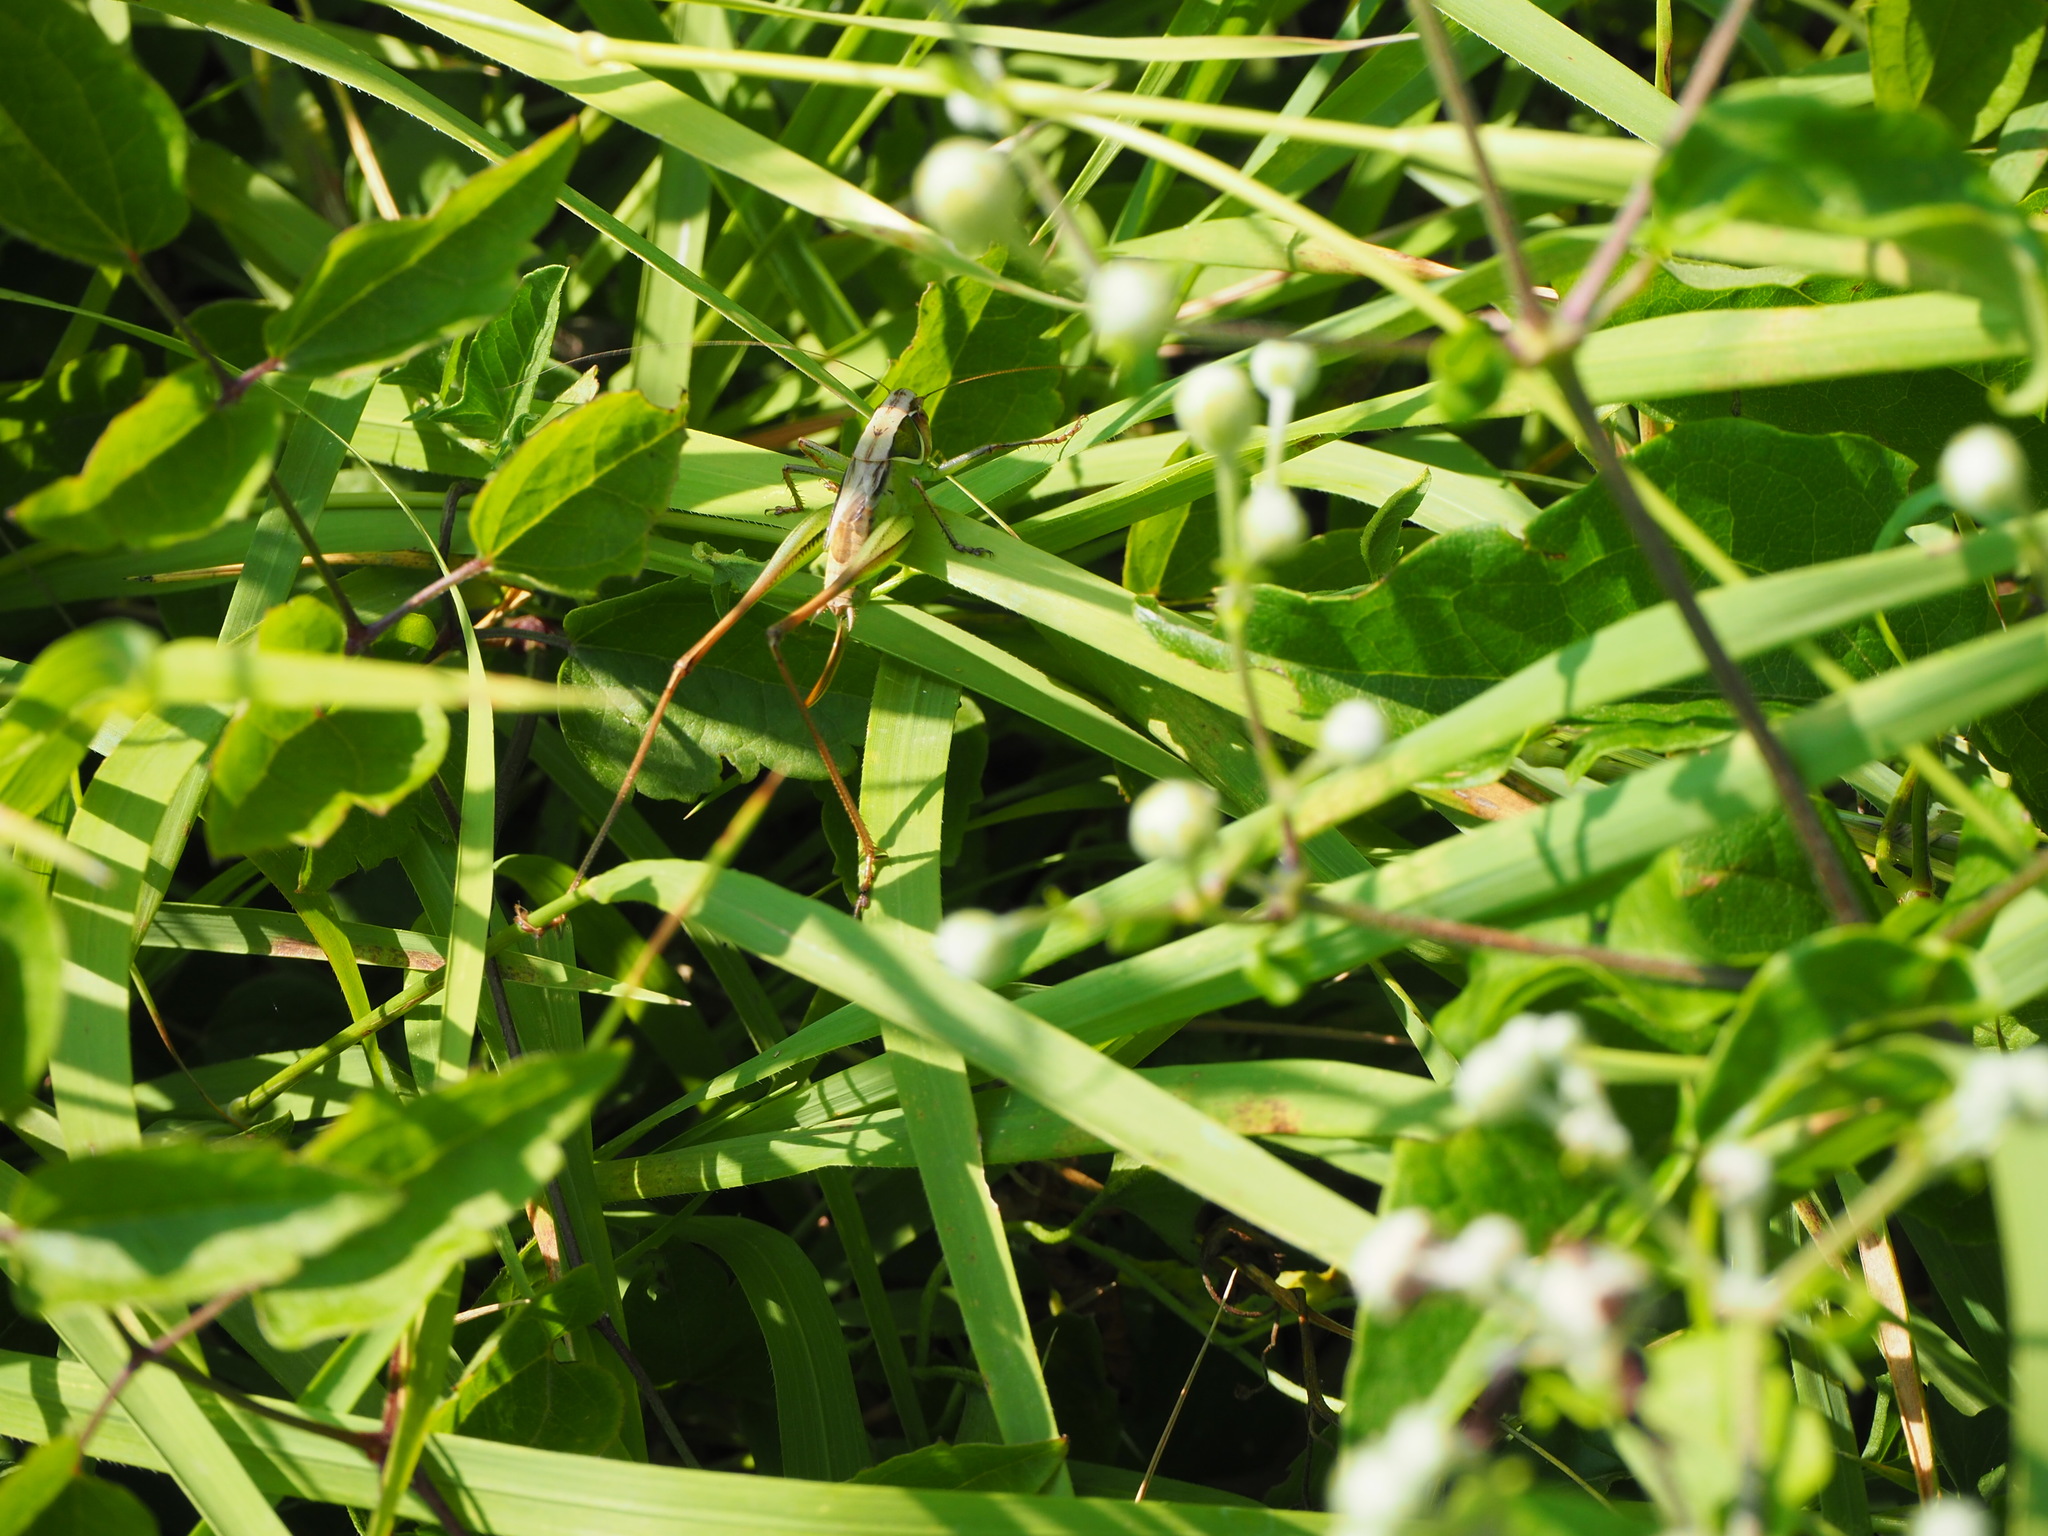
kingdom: Animalia
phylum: Arthropoda
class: Insecta
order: Orthoptera
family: Tettigoniidae
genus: Sepiana
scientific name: Sepiana sepium
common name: Sepia bush-cricket
